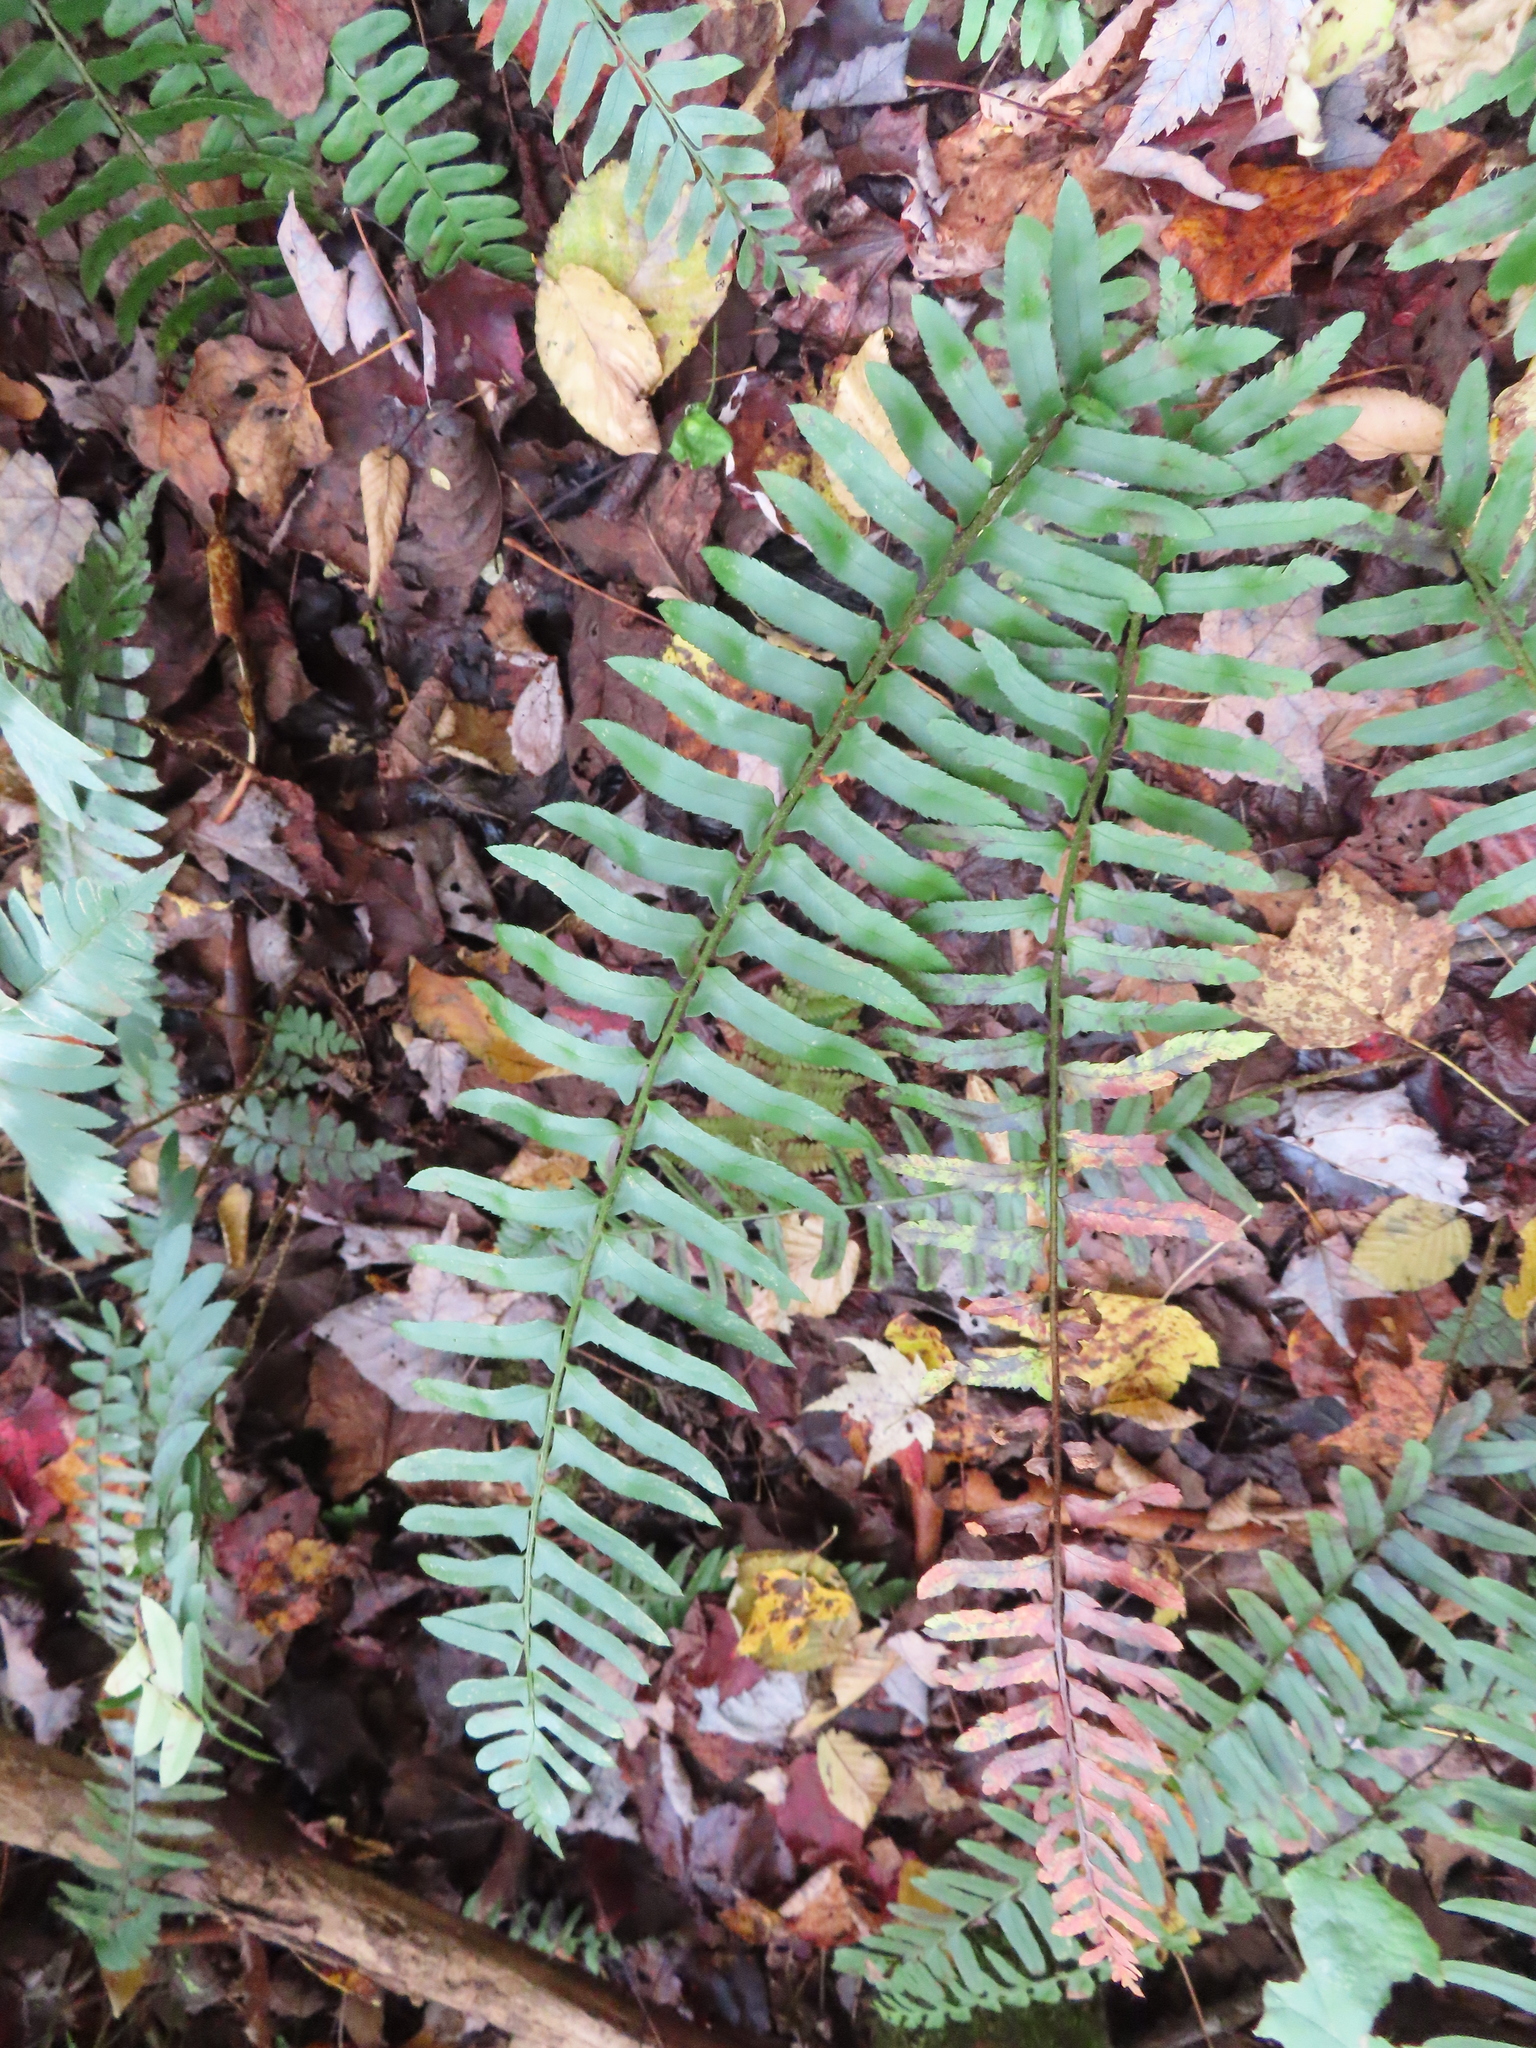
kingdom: Plantae
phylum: Tracheophyta
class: Polypodiopsida
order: Polypodiales
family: Dryopteridaceae
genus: Polystichum
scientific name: Polystichum acrostichoides
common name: Christmas fern
